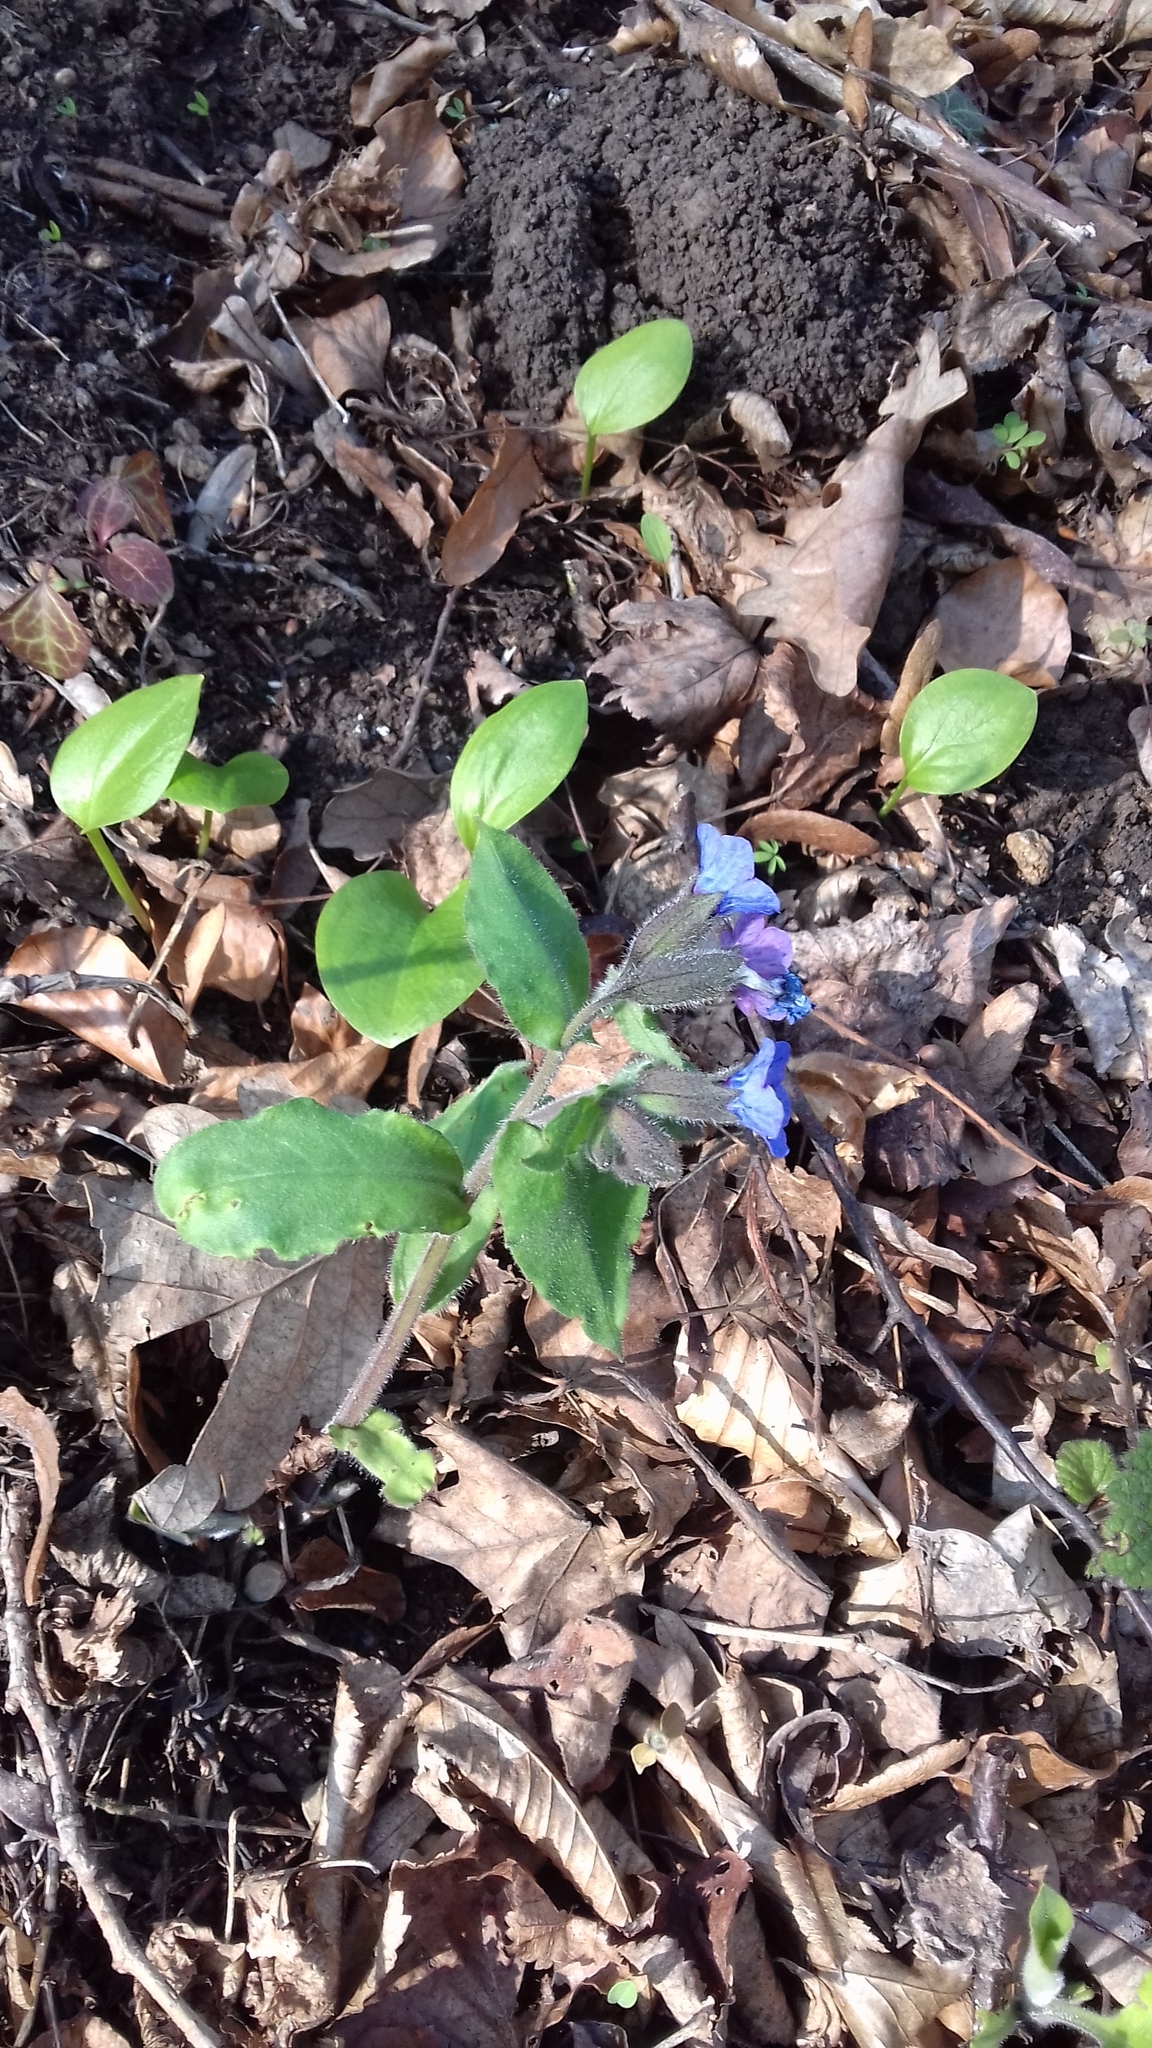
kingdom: Plantae
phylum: Tracheophyta
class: Magnoliopsida
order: Boraginales
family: Boraginaceae
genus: Pulmonaria
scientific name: Pulmonaria mollis
